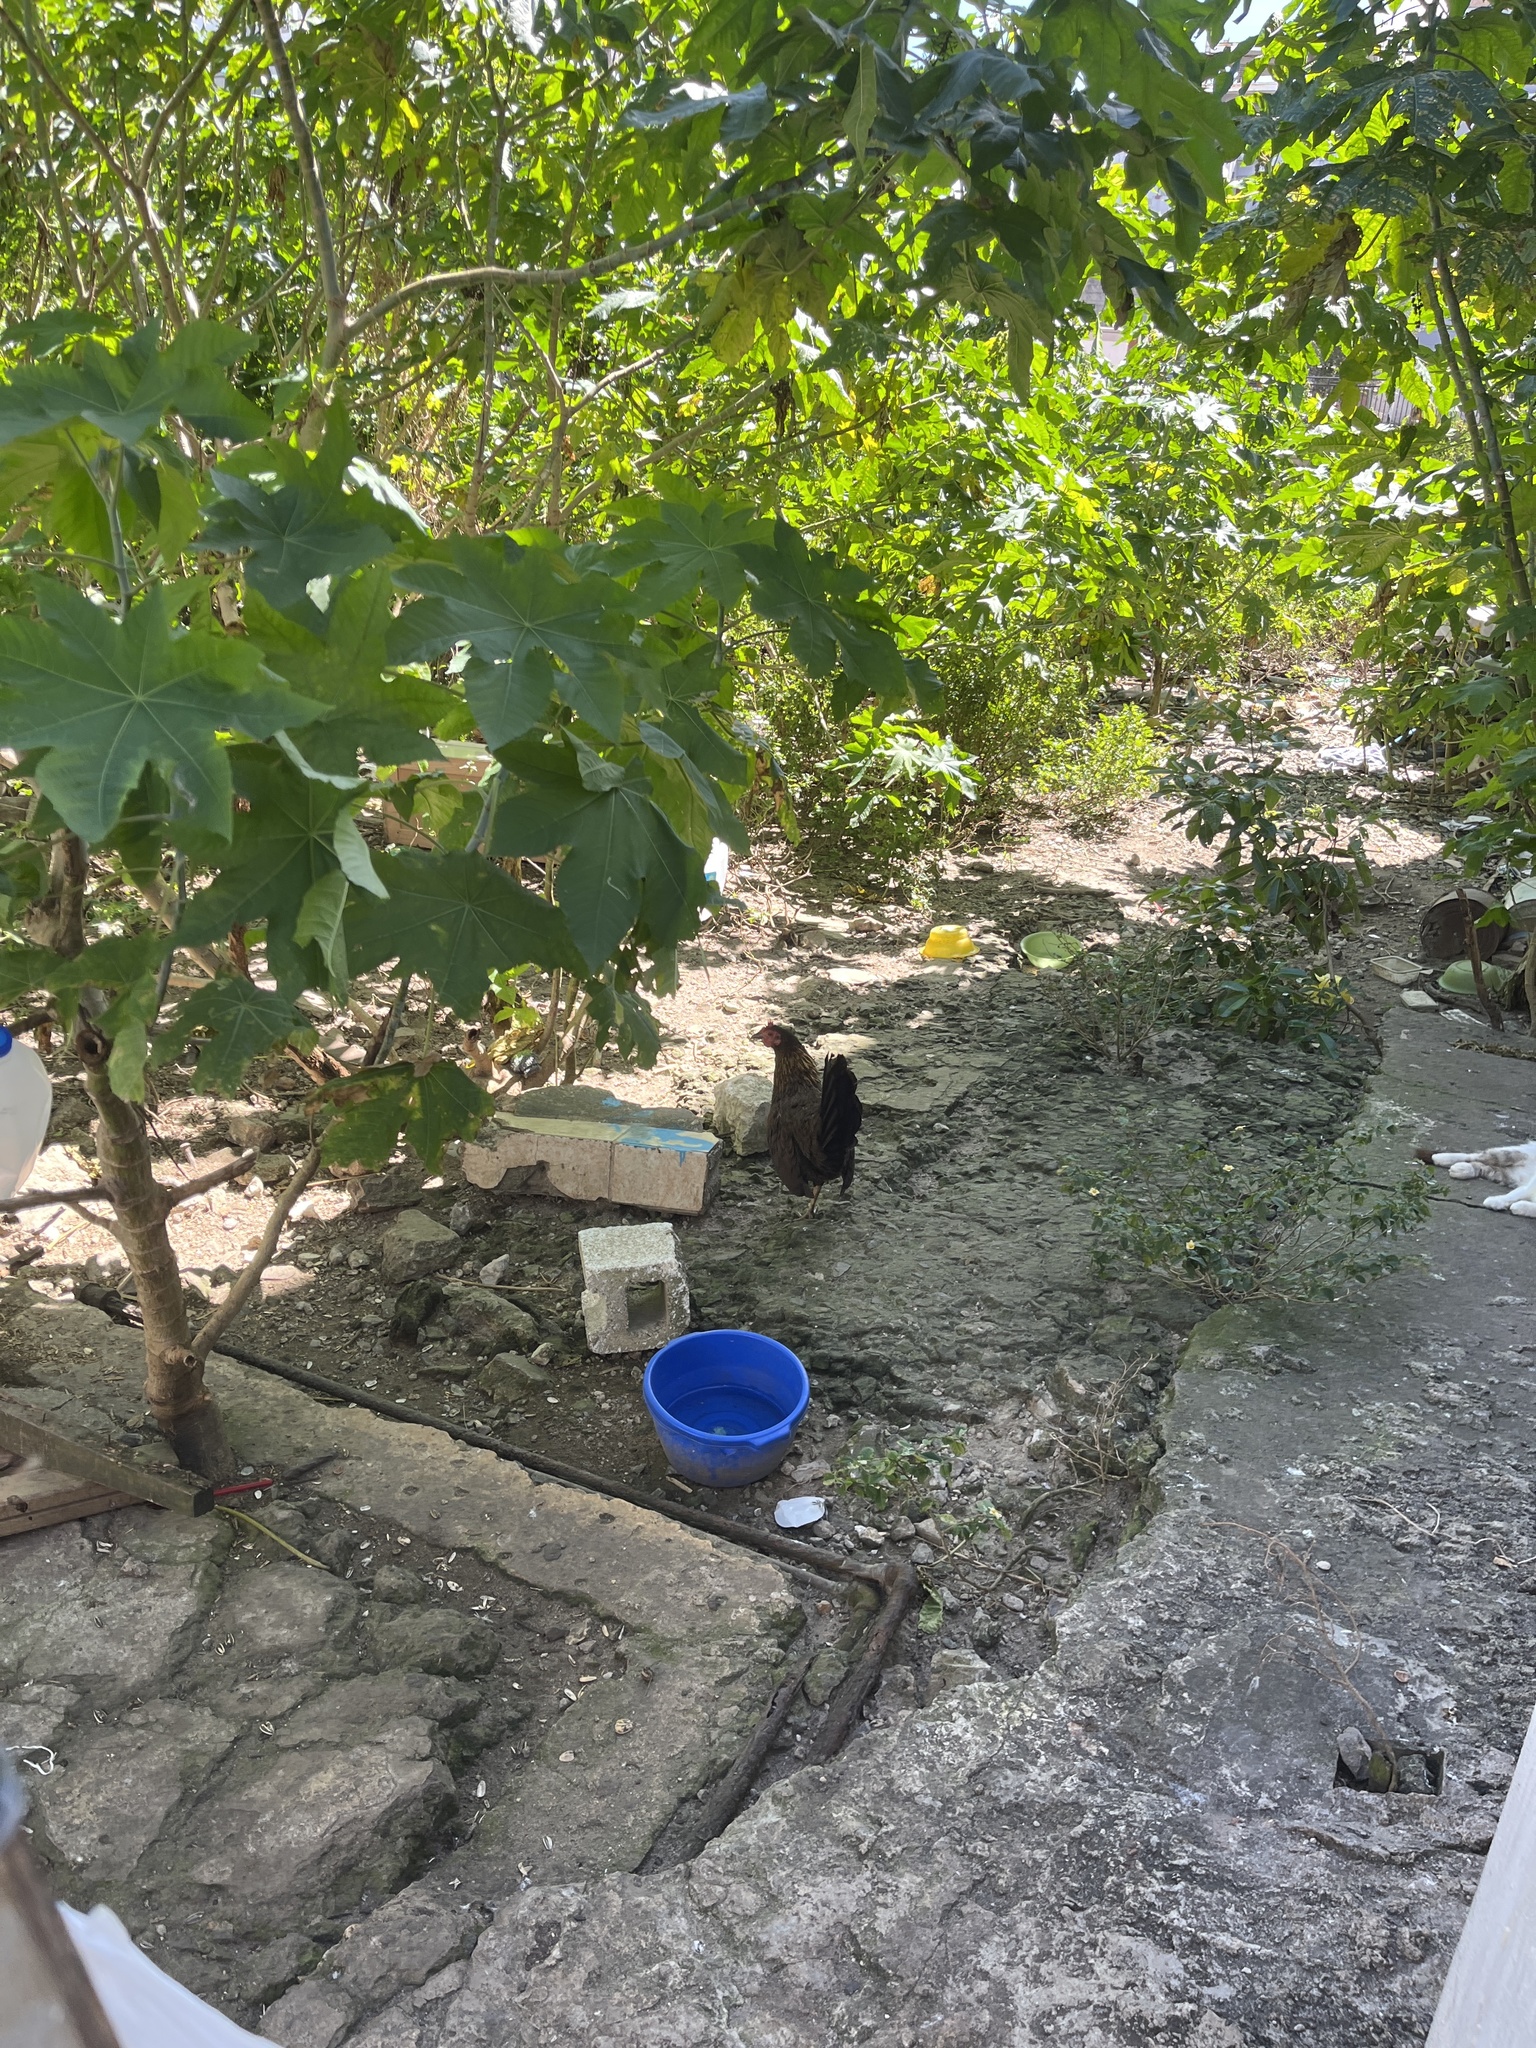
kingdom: Animalia
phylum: Chordata
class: Aves
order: Galliformes
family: Phasianidae
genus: Gallus
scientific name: Gallus gallus
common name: Red junglefowl
